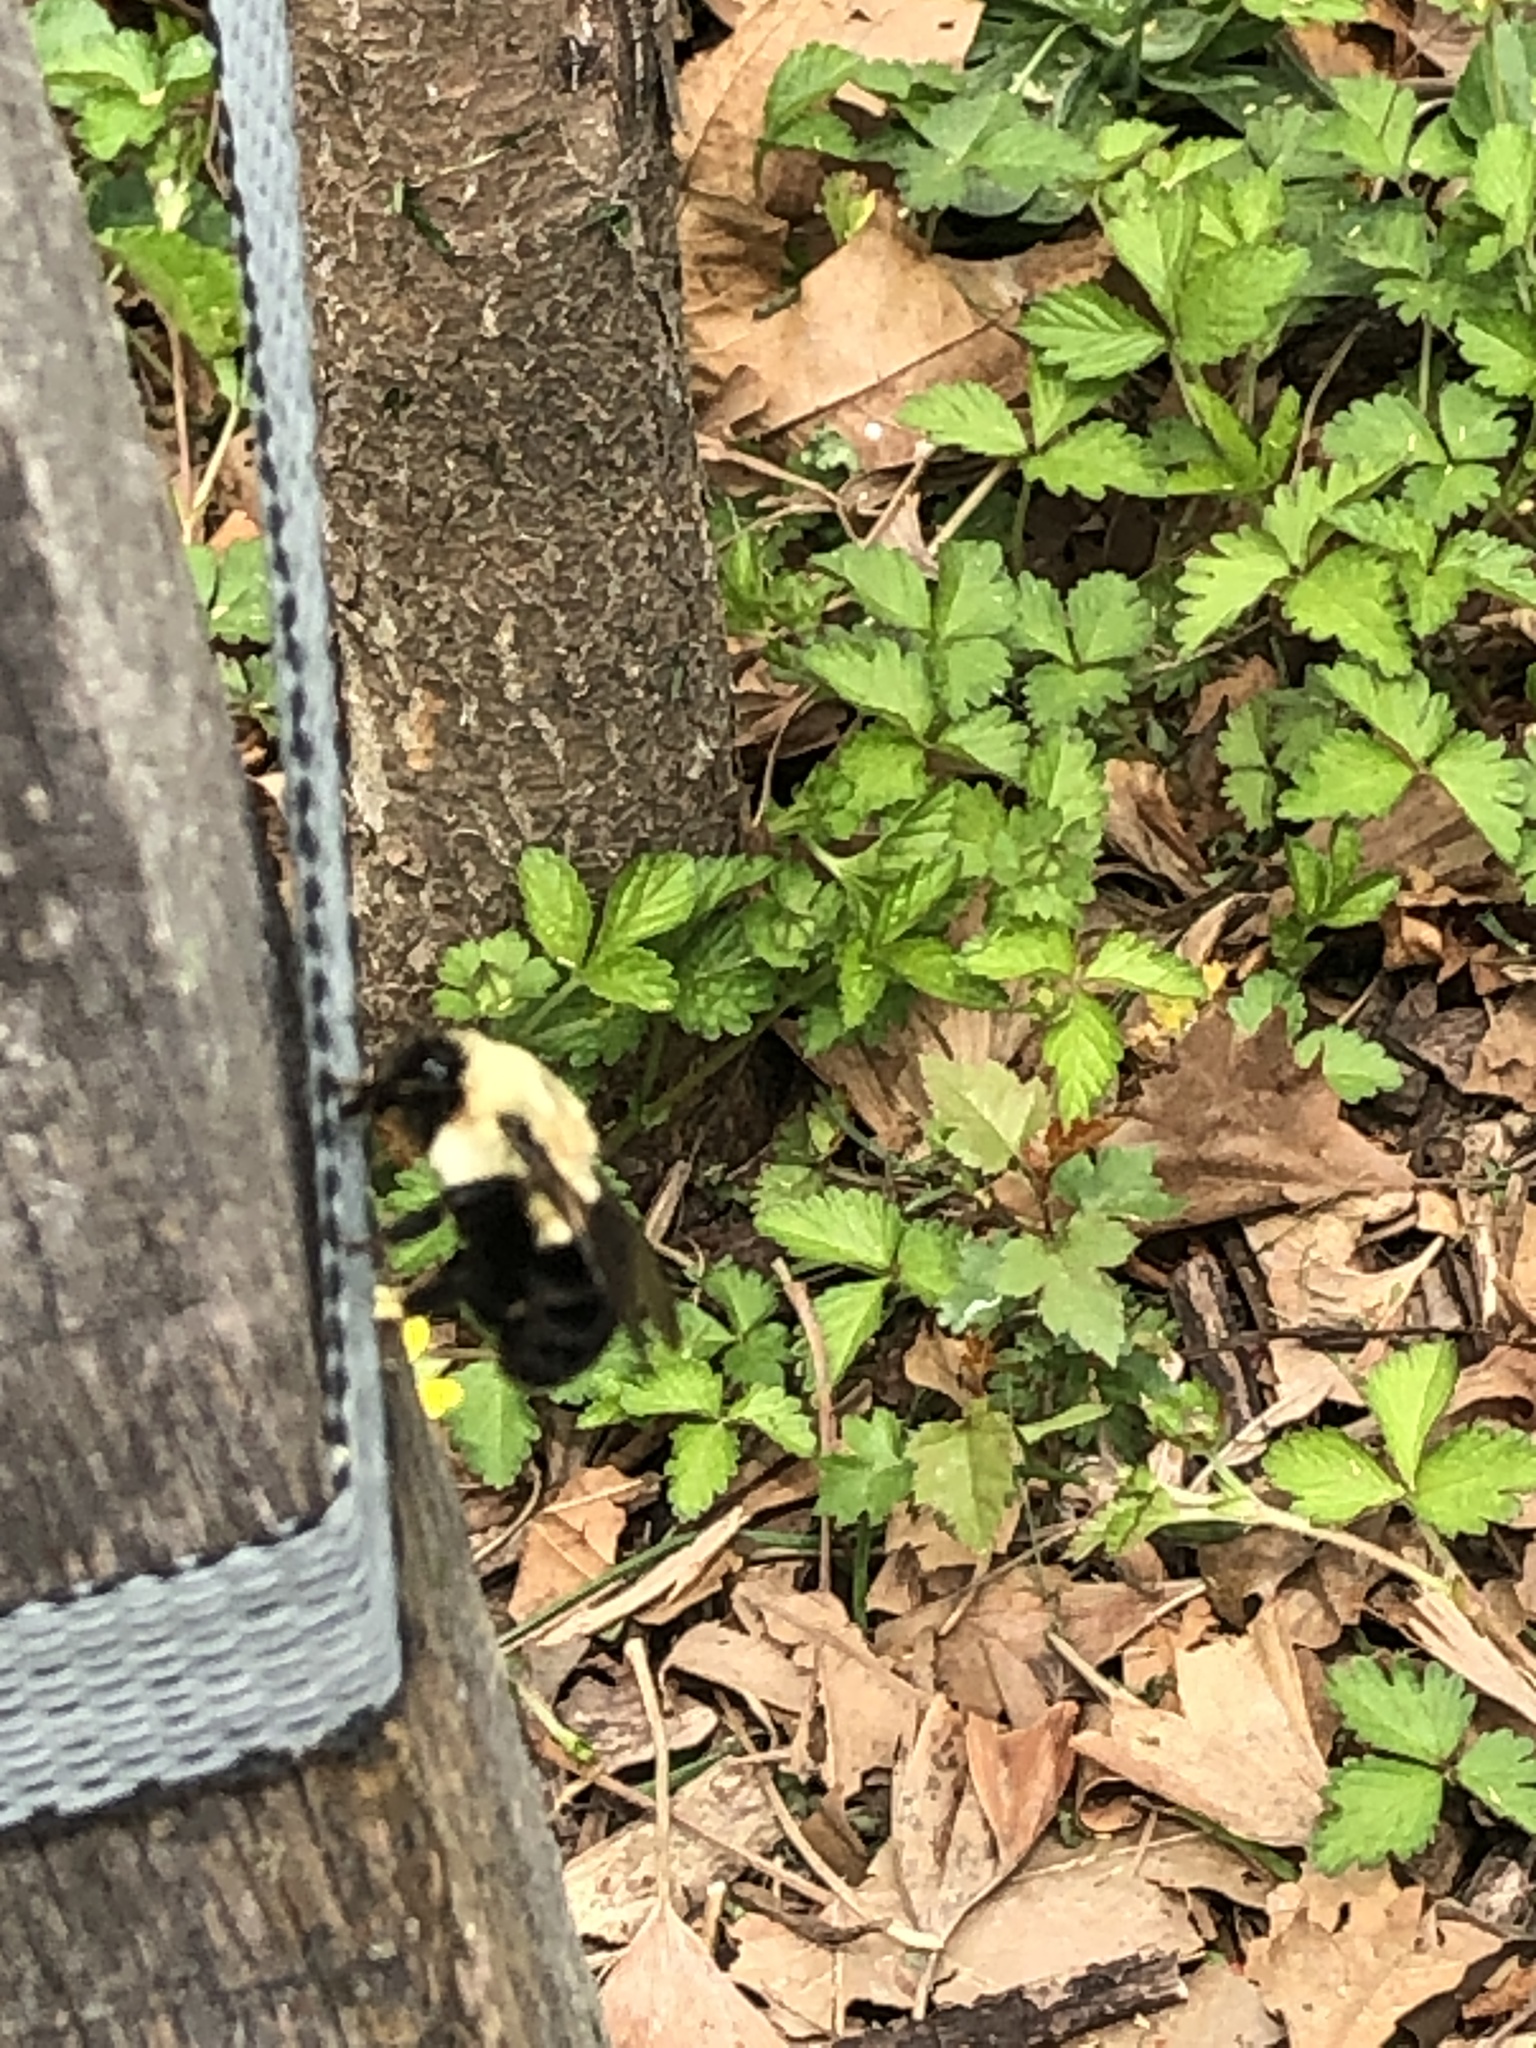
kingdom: Animalia
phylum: Arthropoda
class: Insecta
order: Hymenoptera
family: Apidae
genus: Bombus
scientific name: Bombus impatiens
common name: Common eastern bumble bee
